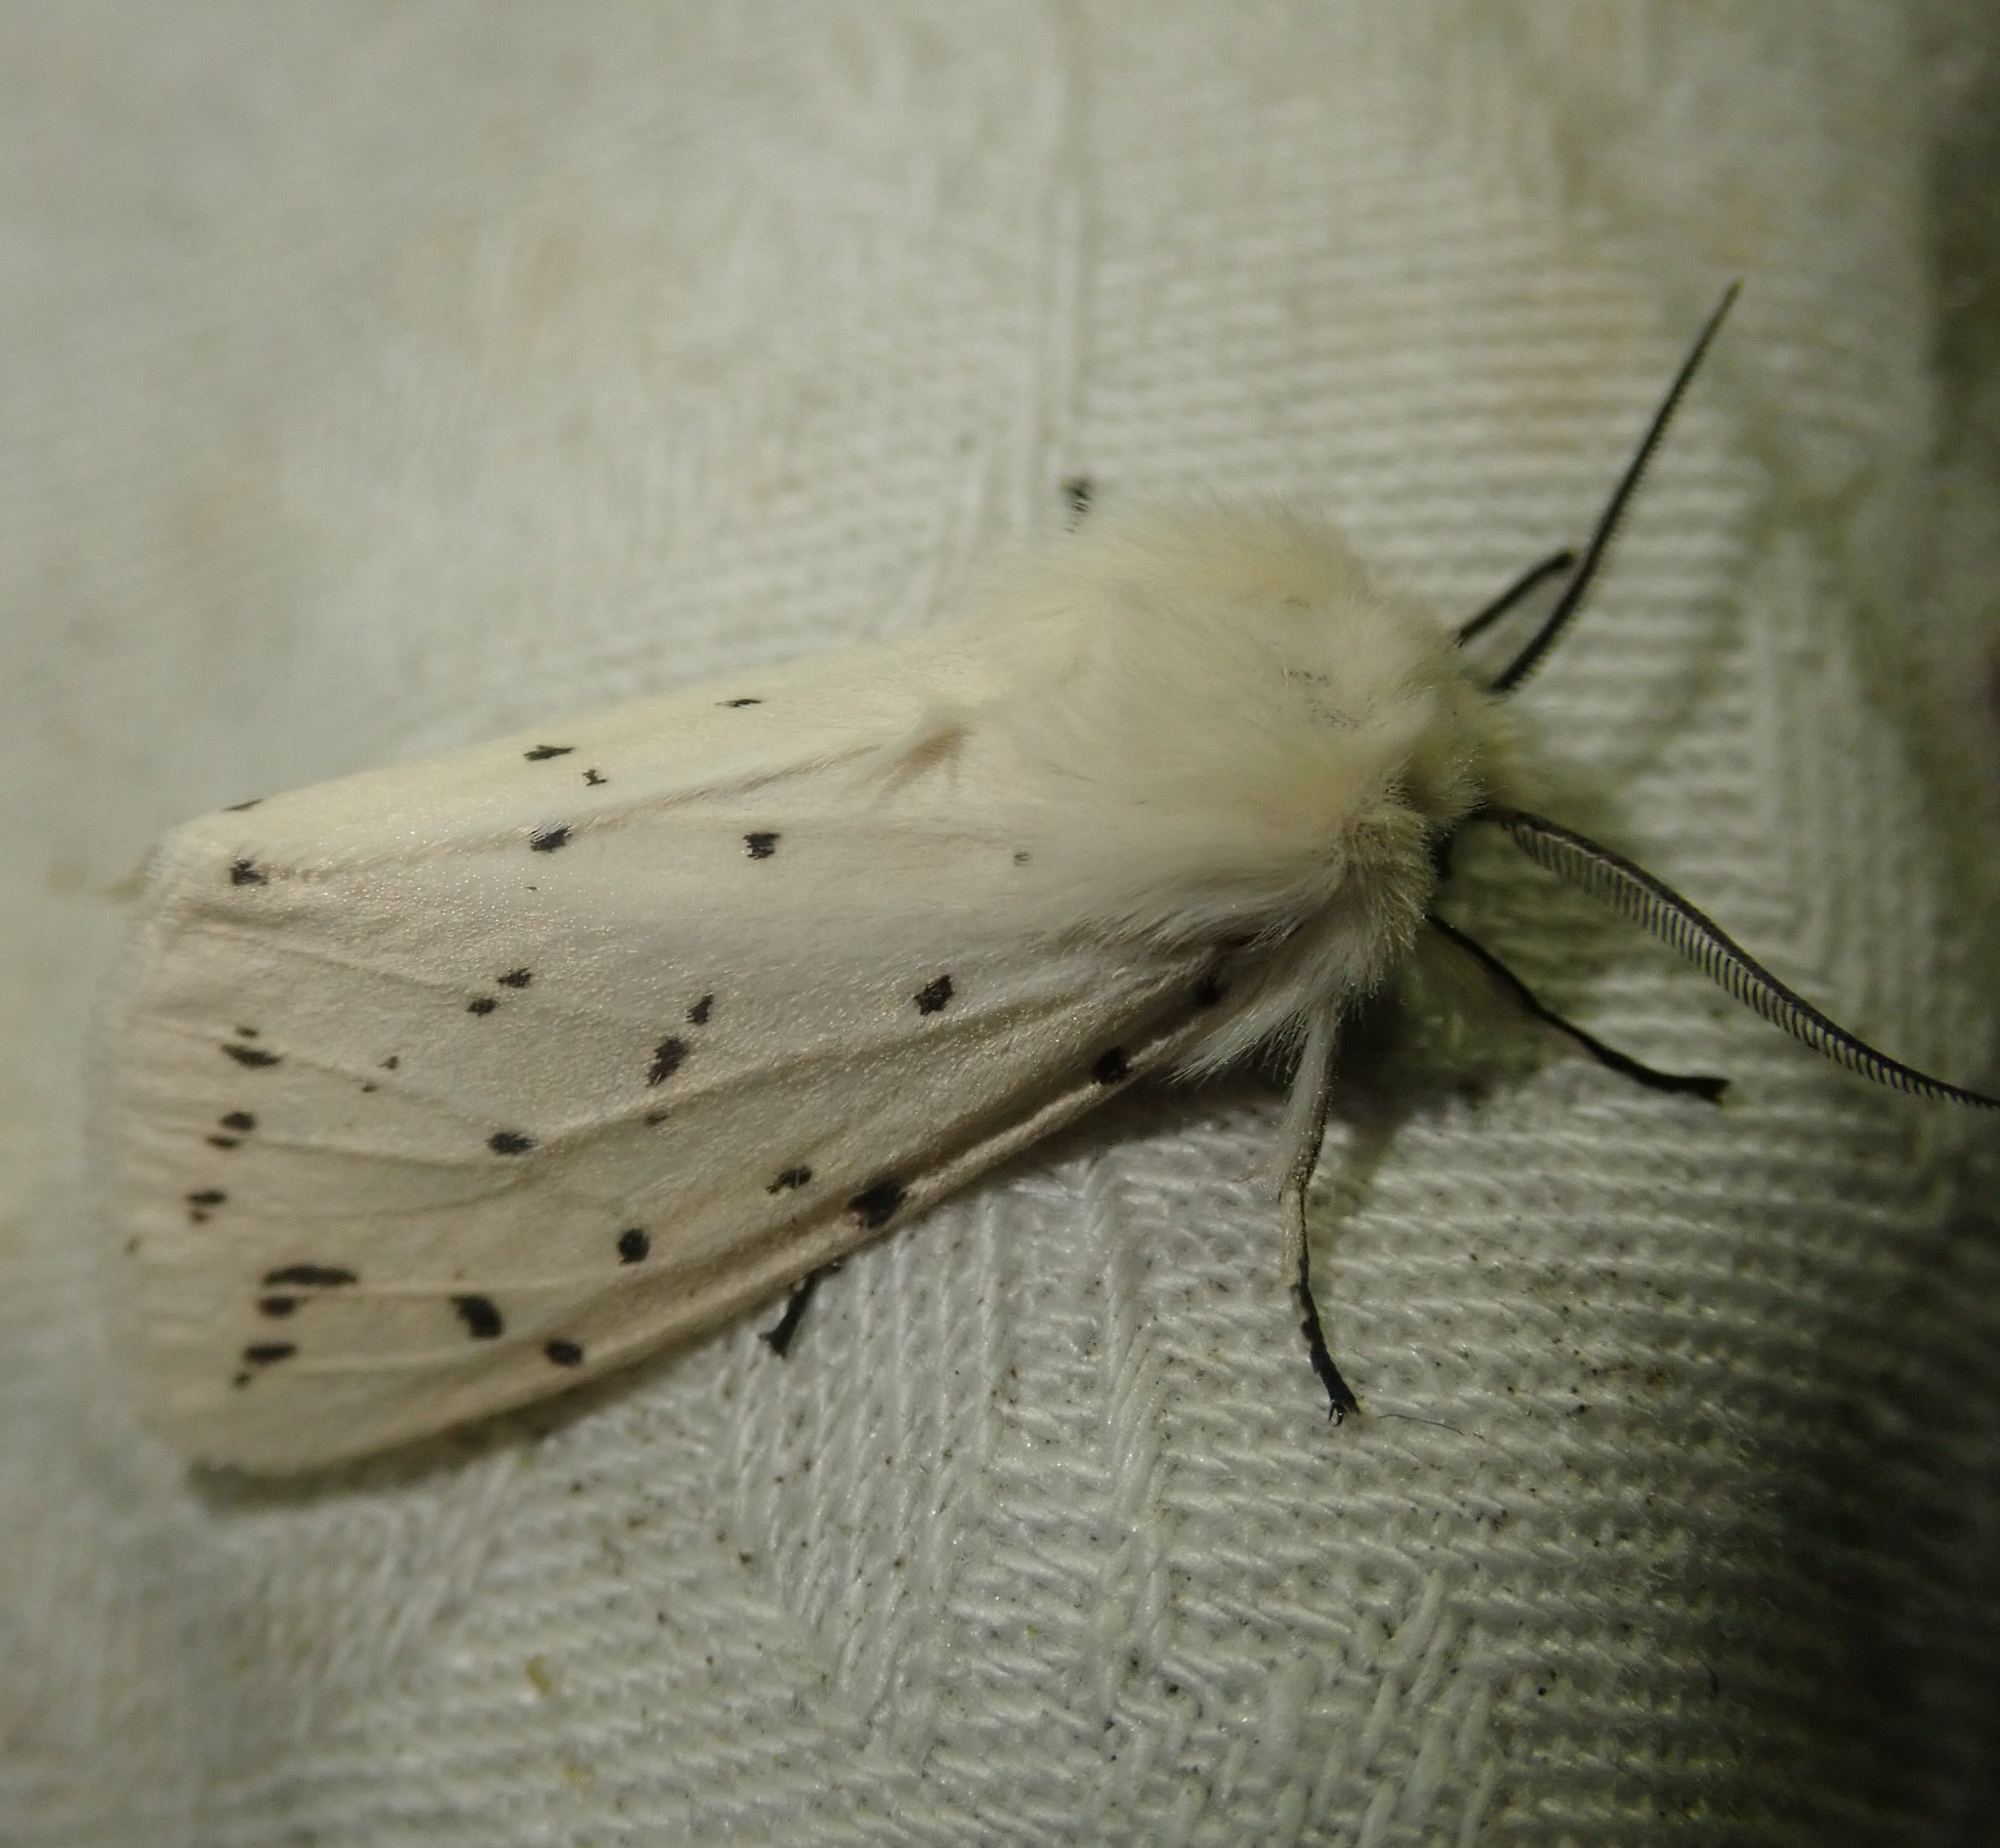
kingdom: Animalia
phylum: Arthropoda
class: Insecta
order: Lepidoptera
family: Erebidae
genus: Spilosoma
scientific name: Spilosoma lubricipeda
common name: White ermine
